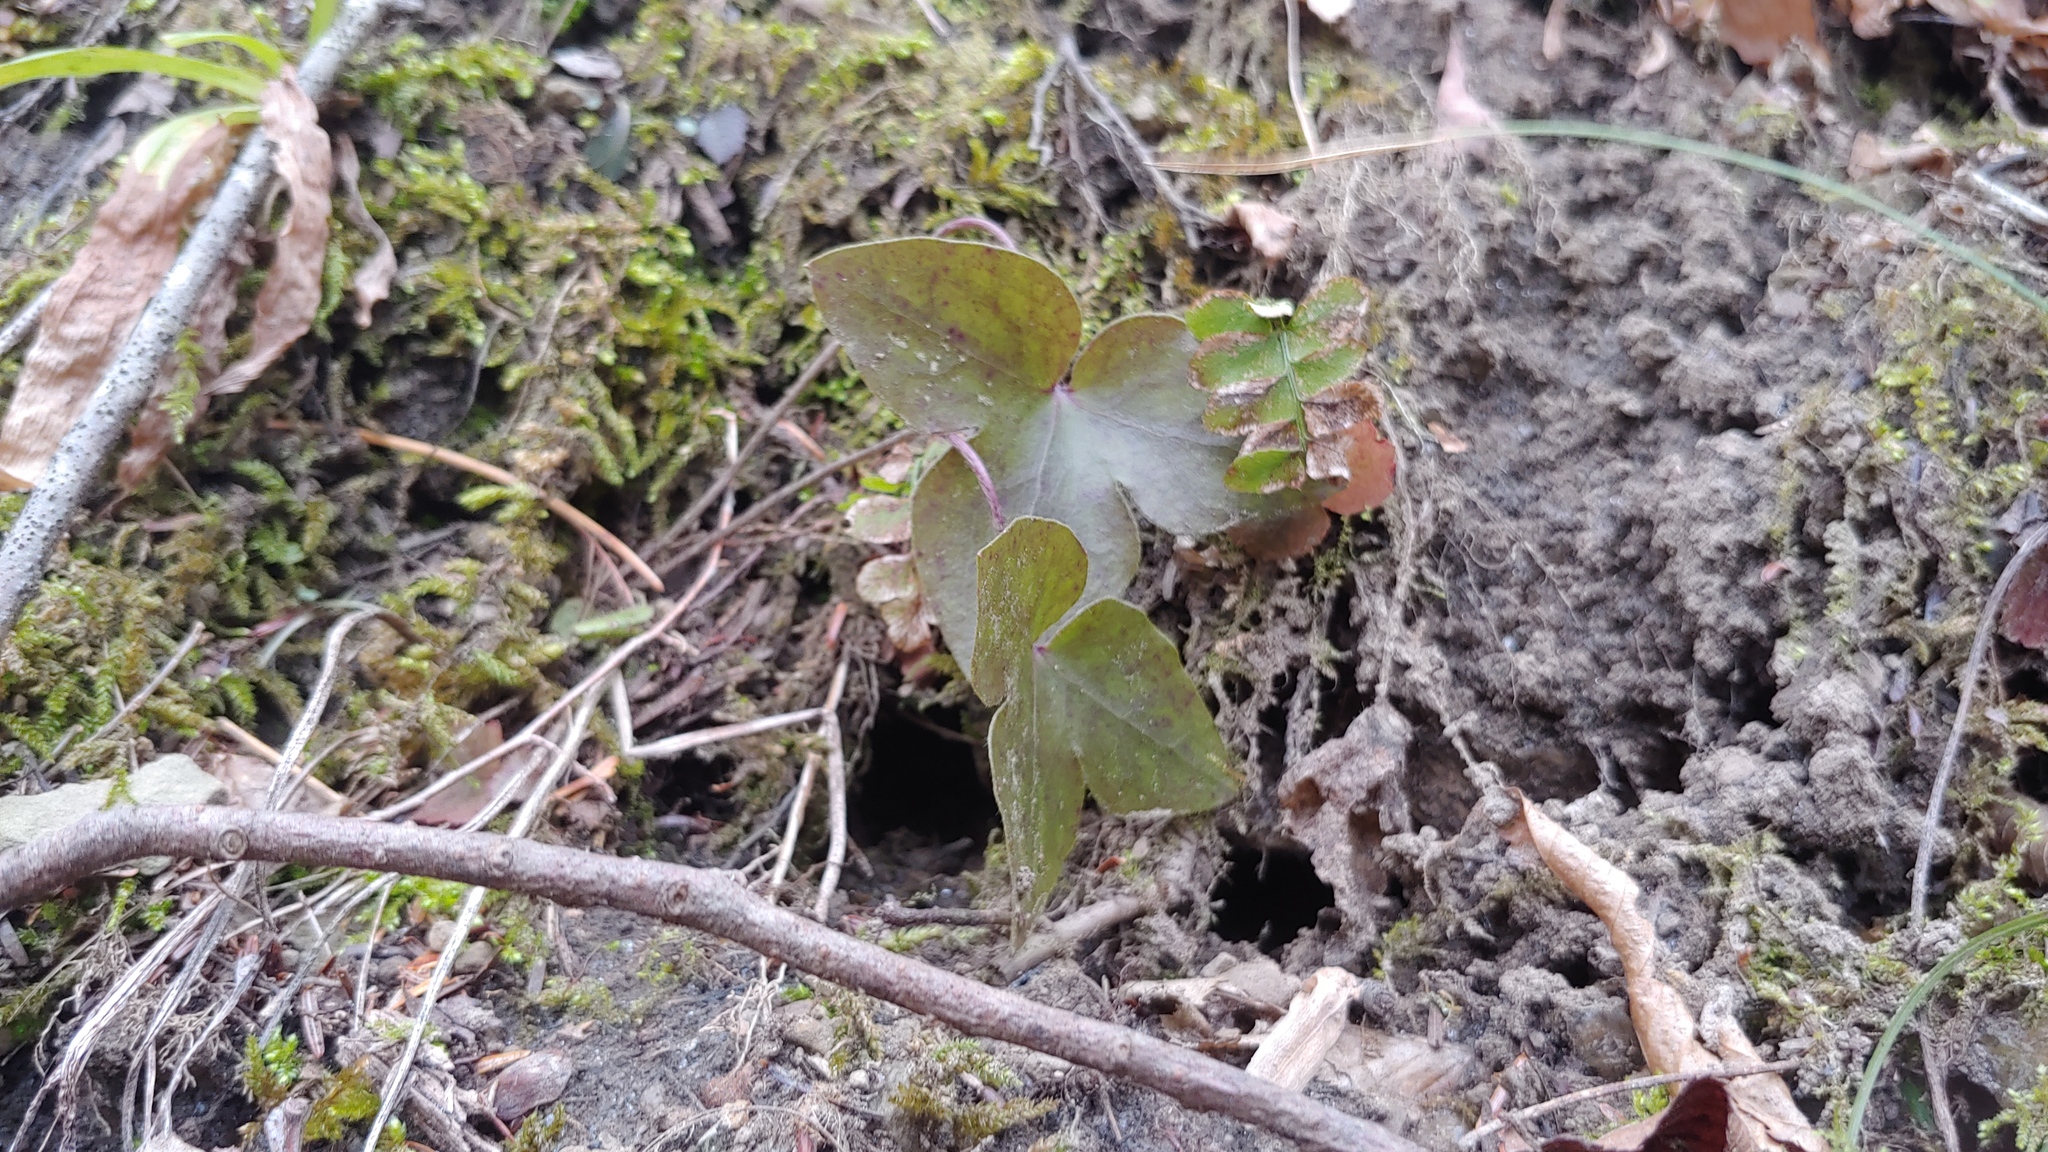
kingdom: Plantae
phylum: Tracheophyta
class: Magnoliopsida
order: Ranunculales
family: Ranunculaceae
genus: Hepatica
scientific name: Hepatica acutiloba
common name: Sharp-lobed hepatica
